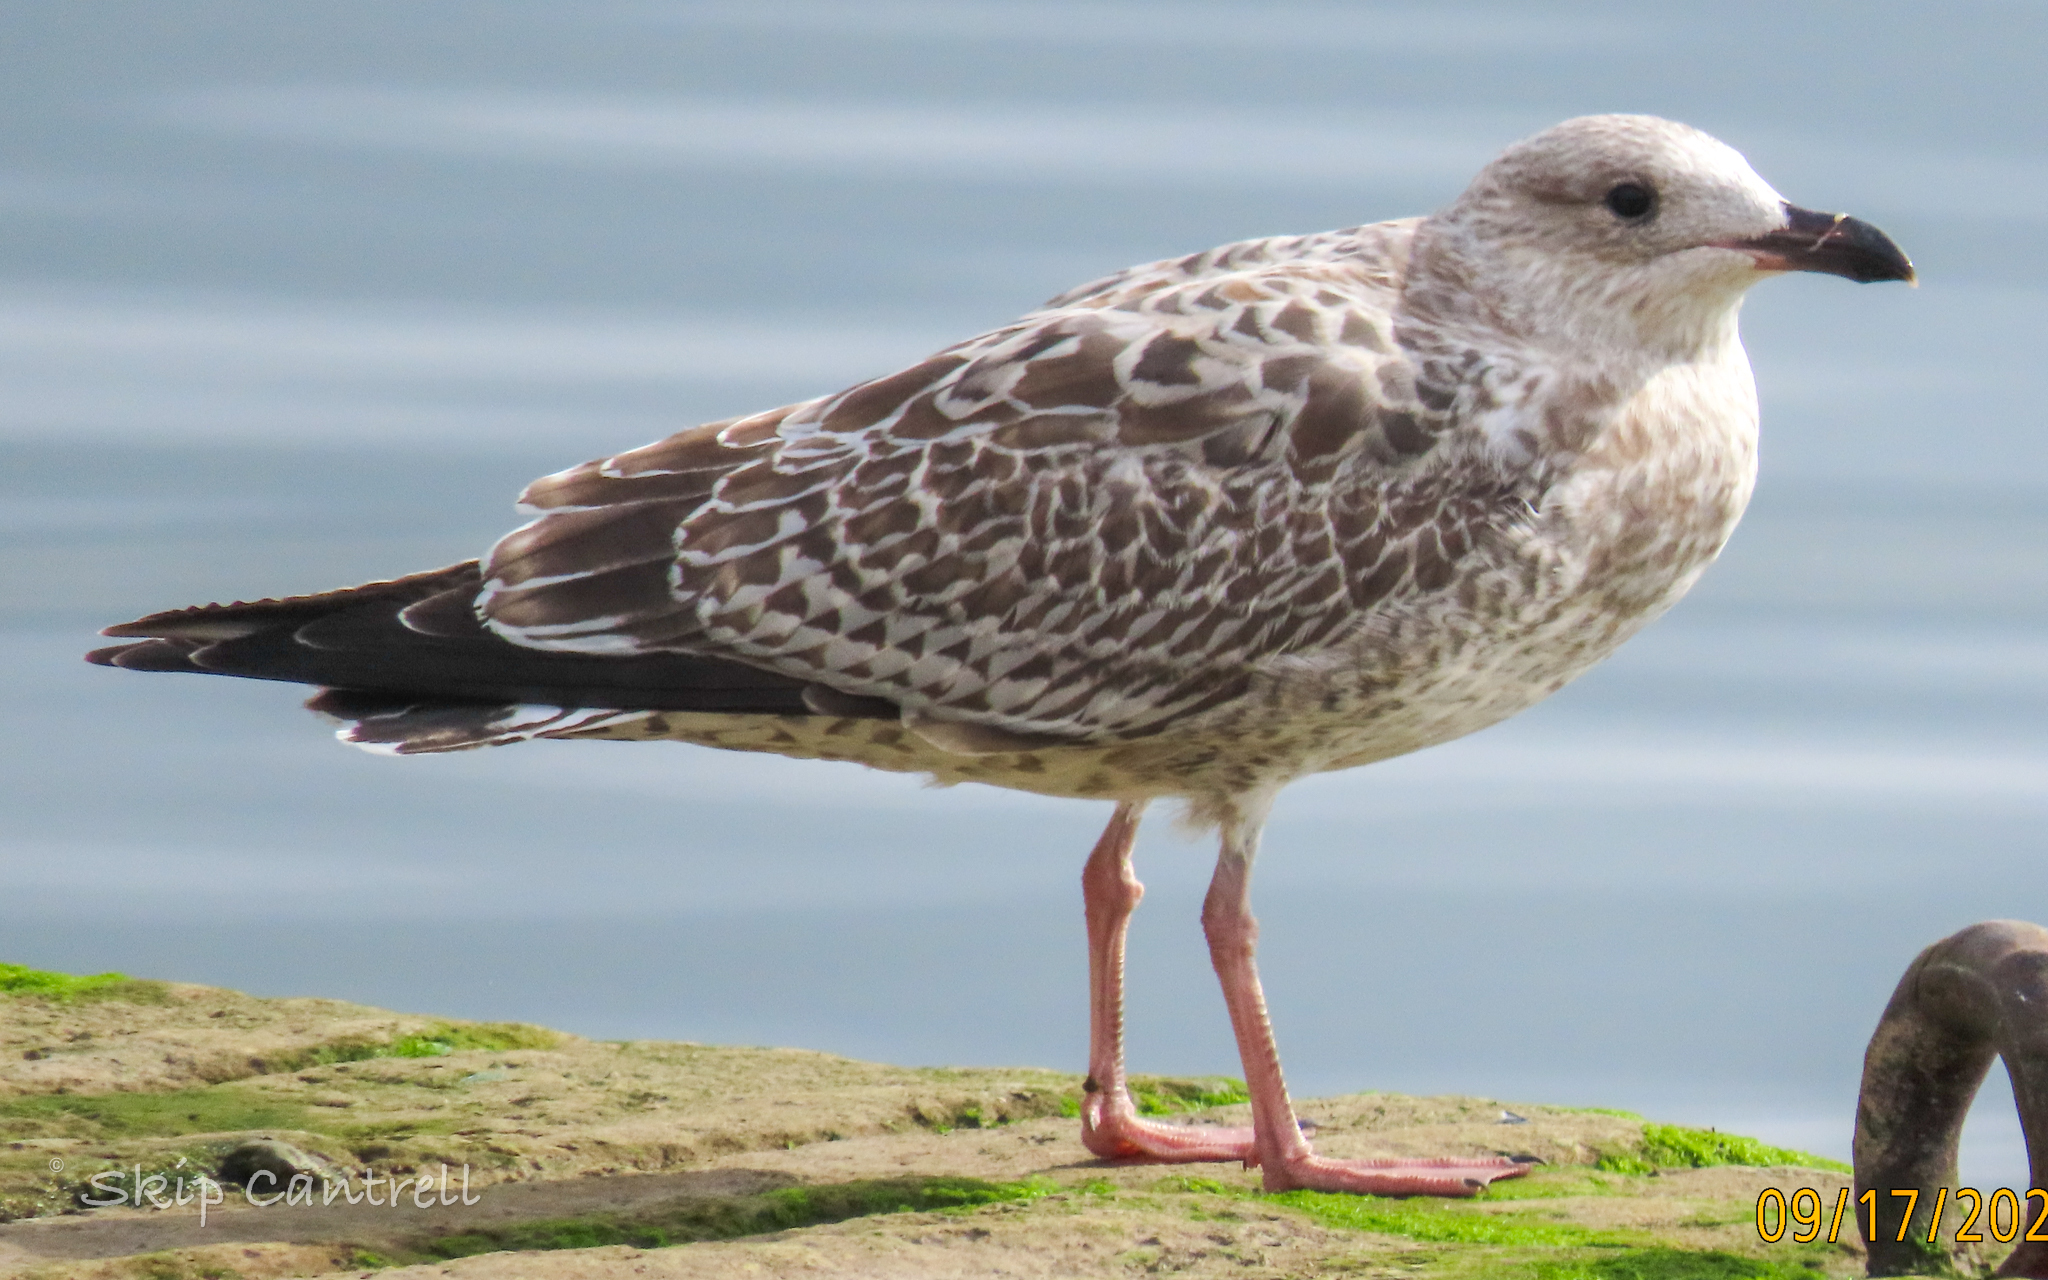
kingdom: Animalia
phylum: Chordata
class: Aves
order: Charadriiformes
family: Laridae
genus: Larus
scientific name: Larus marinus
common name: Great black-backed gull
